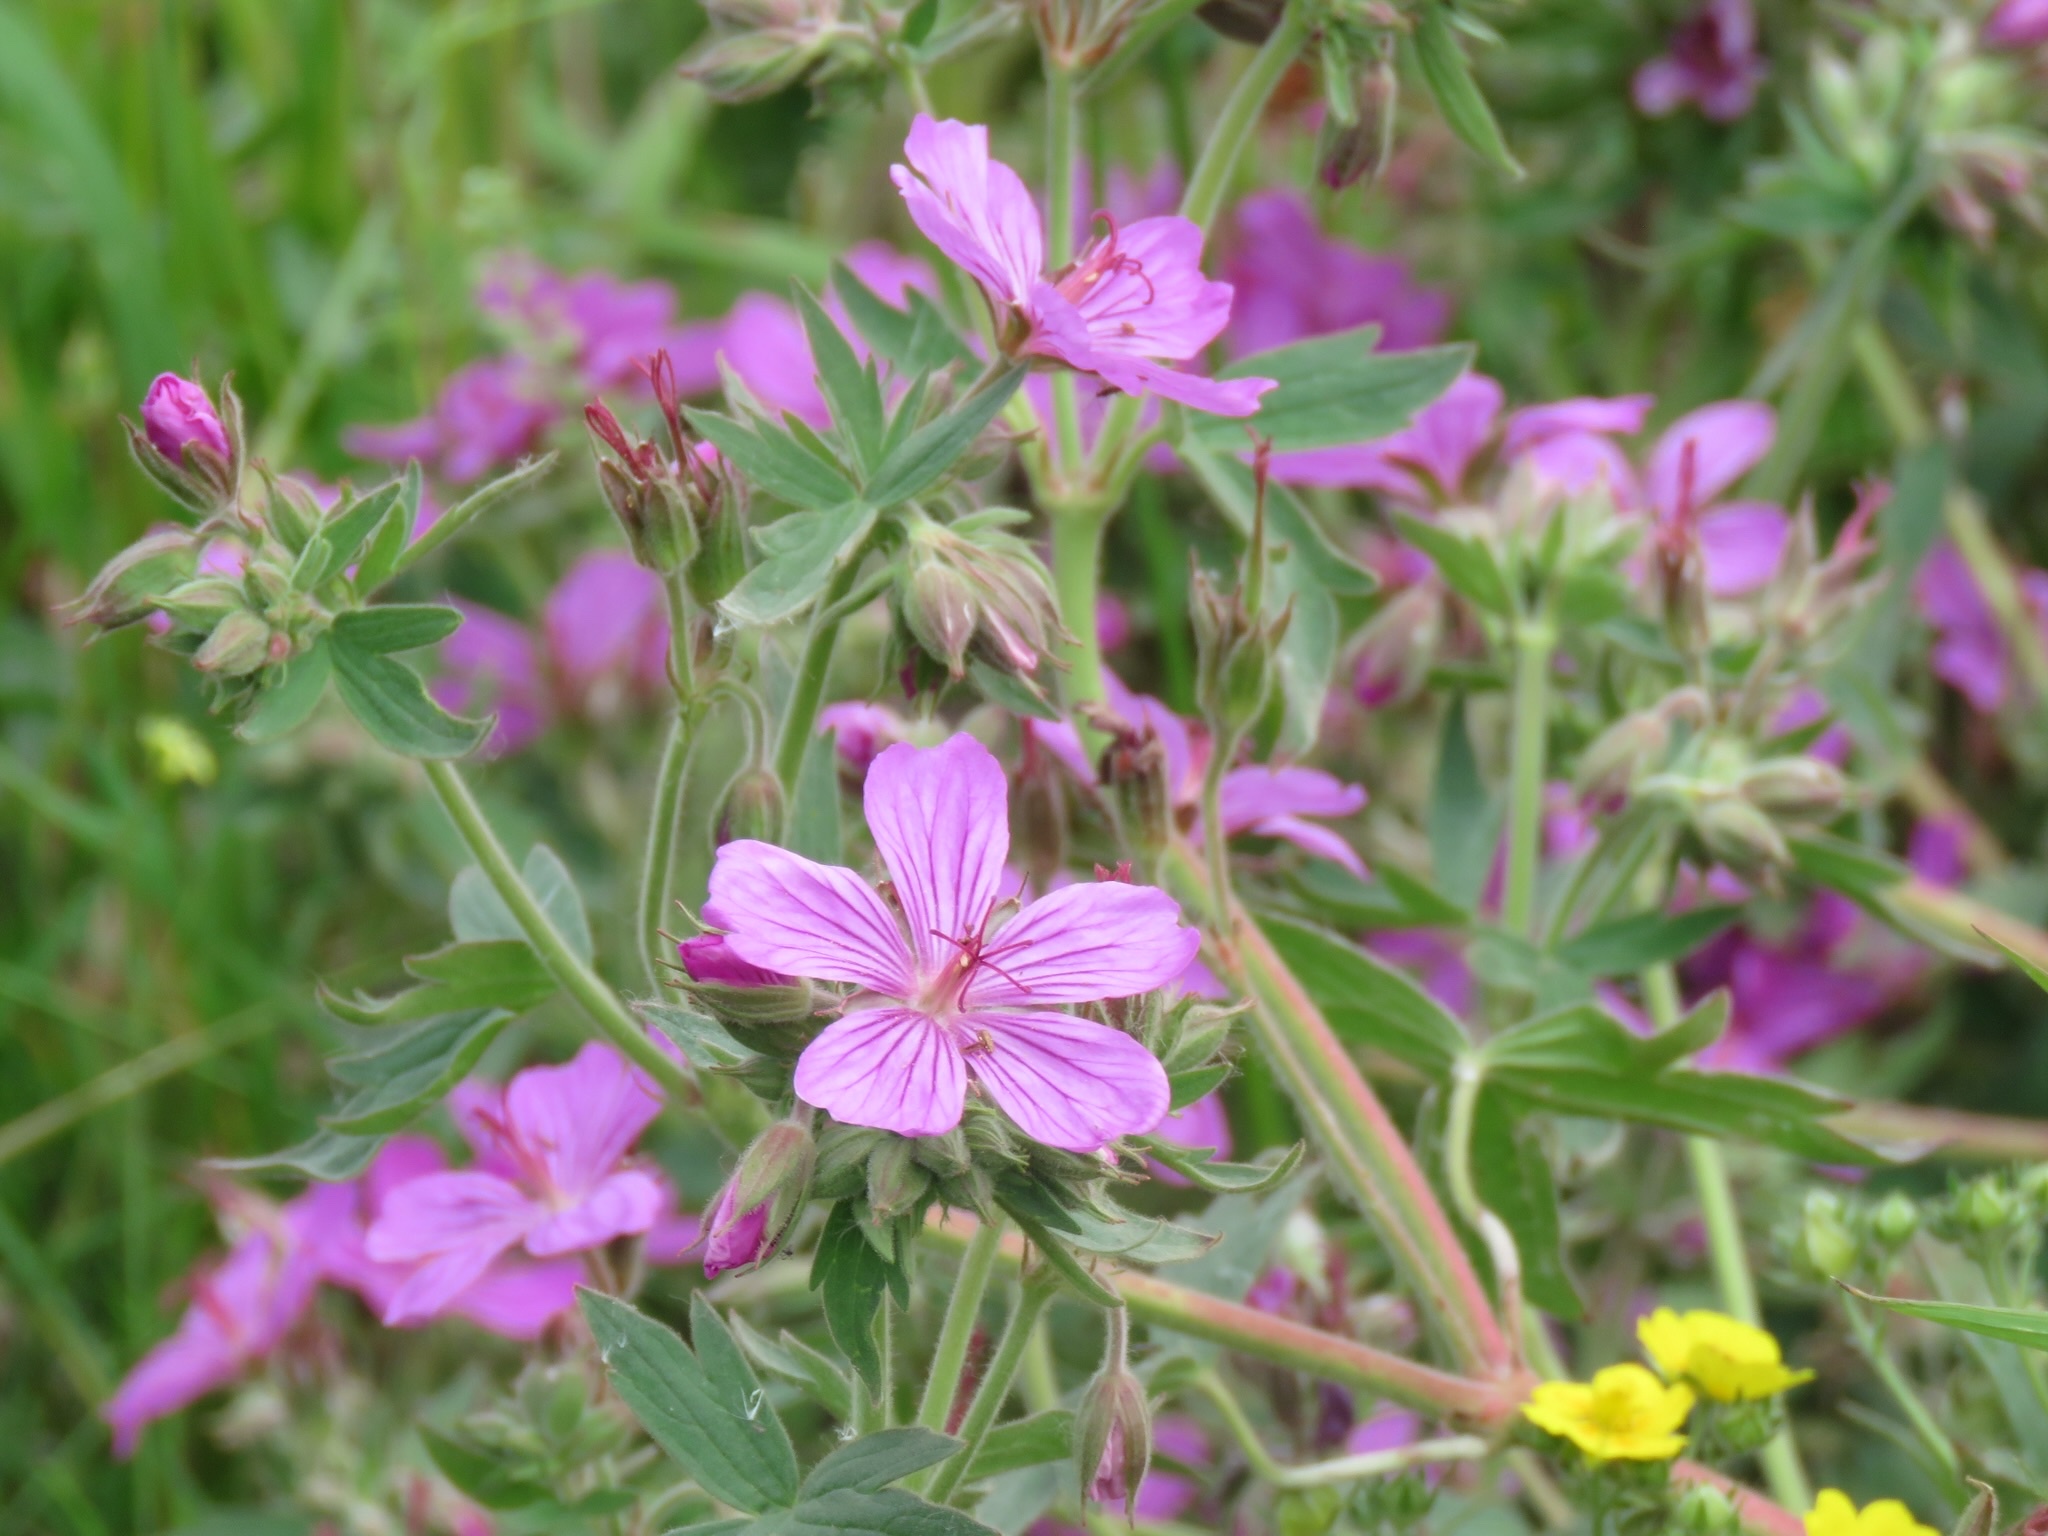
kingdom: Plantae
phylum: Tracheophyta
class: Magnoliopsida
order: Geraniales
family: Geraniaceae
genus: Geranium
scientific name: Geranium viscosissimum
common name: Purple geranium
